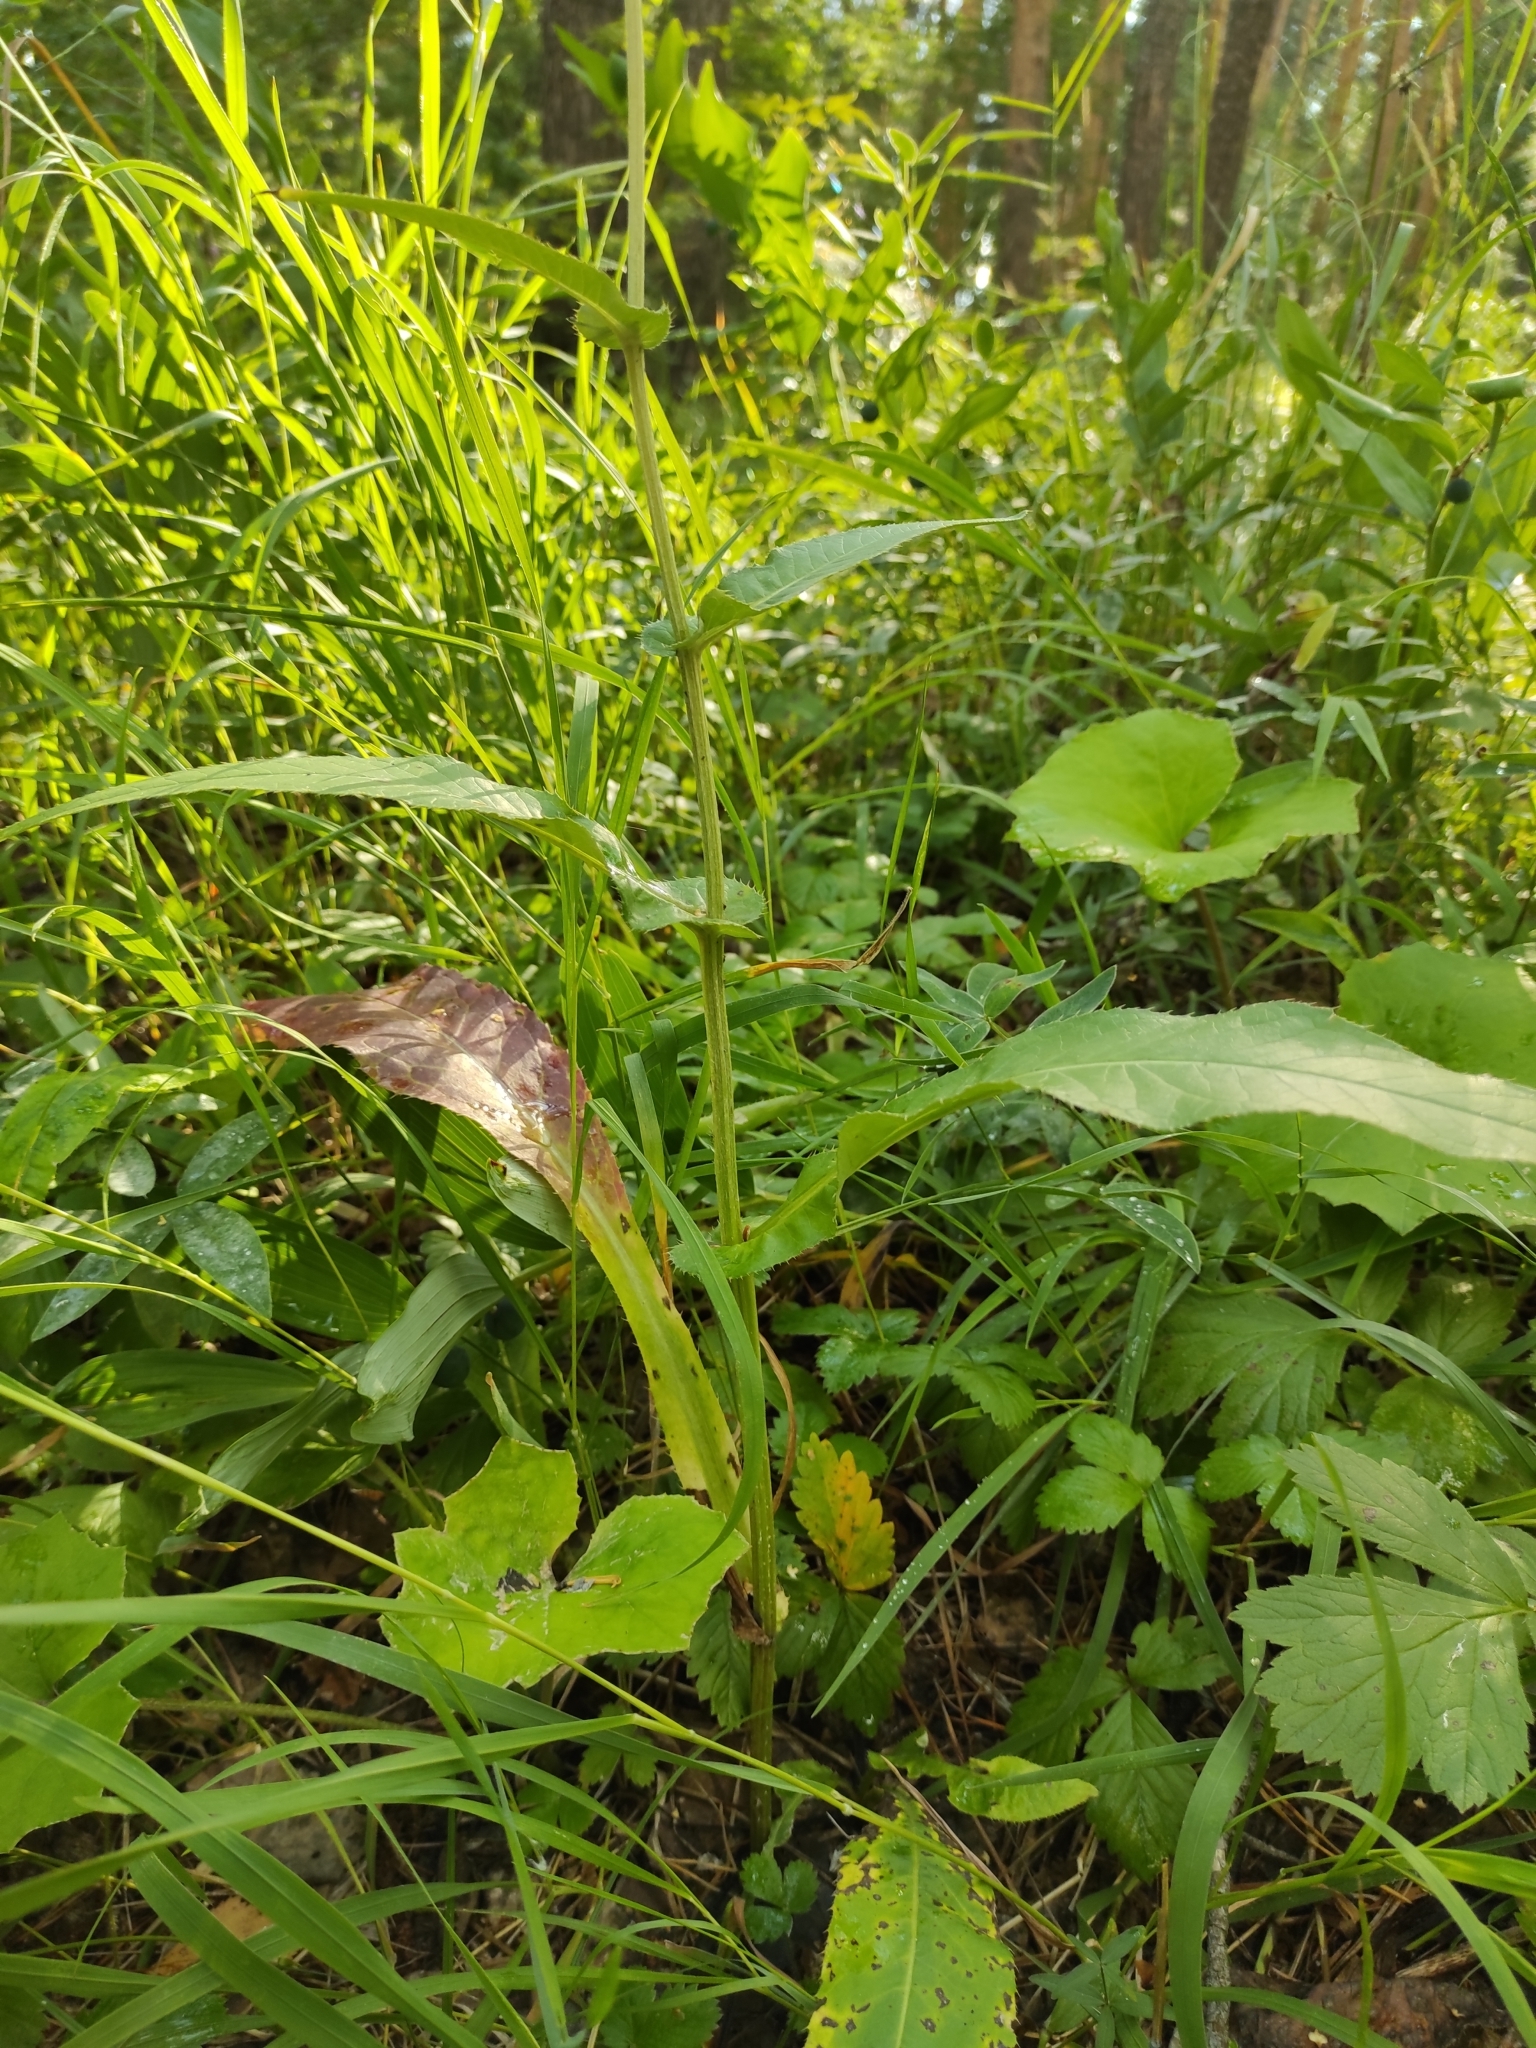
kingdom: Plantae
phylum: Tracheophyta
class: Magnoliopsida
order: Asterales
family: Asteraceae
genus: Cirsium
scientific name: Cirsium heterophyllum
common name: Melancholy thistle
